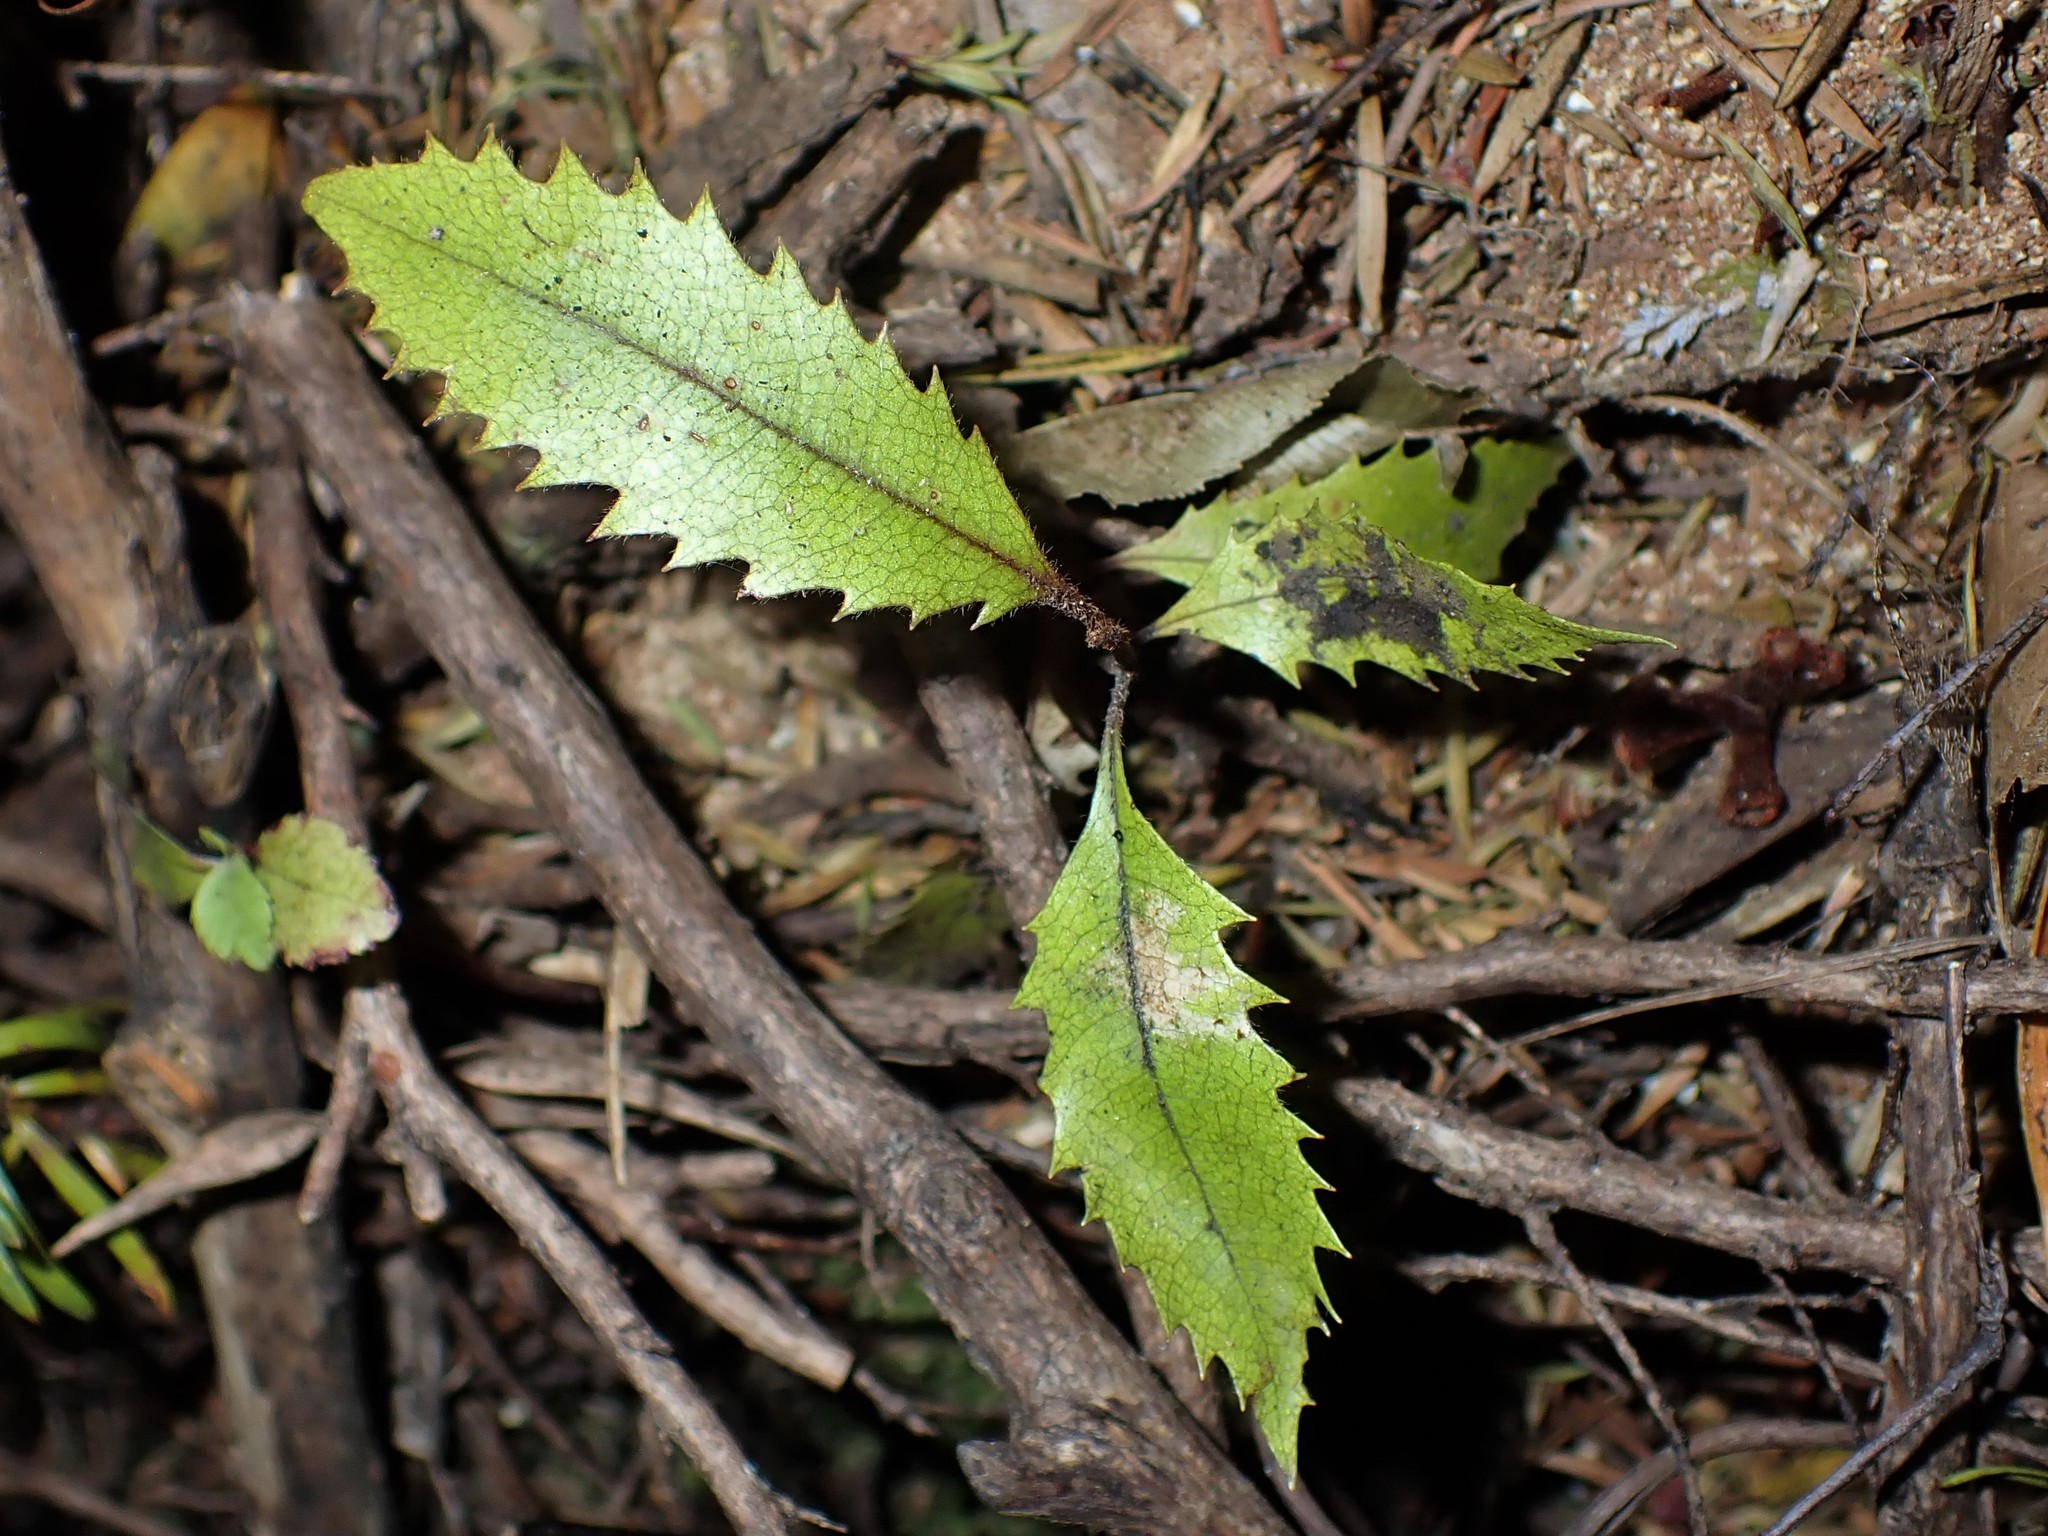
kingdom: Plantae
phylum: Tracheophyta
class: Magnoliopsida
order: Proteales
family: Proteaceae
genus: Knightia
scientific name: Knightia excelsa
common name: New zealand-honeysuckle
